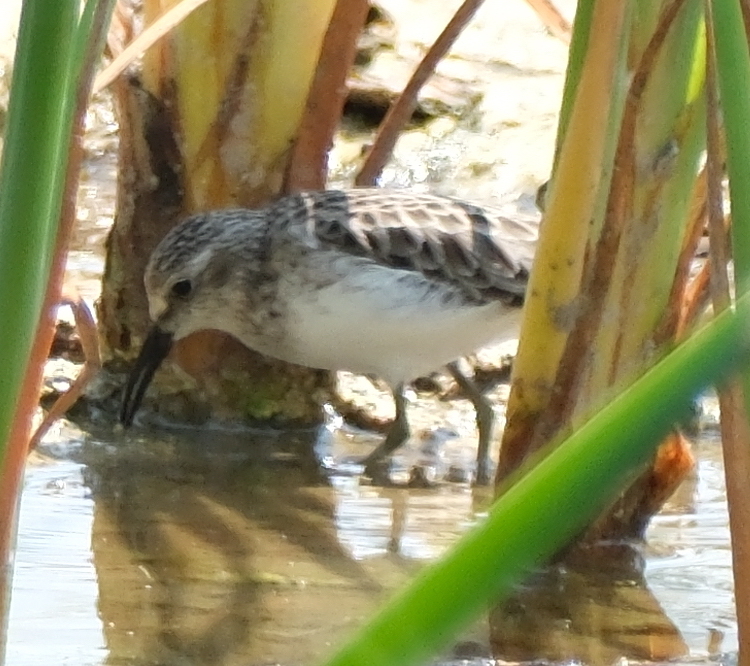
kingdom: Animalia
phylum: Chordata
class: Aves
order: Charadriiformes
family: Scolopacidae
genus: Calidris
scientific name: Calidris pusilla
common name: Semipalmated sandpiper
